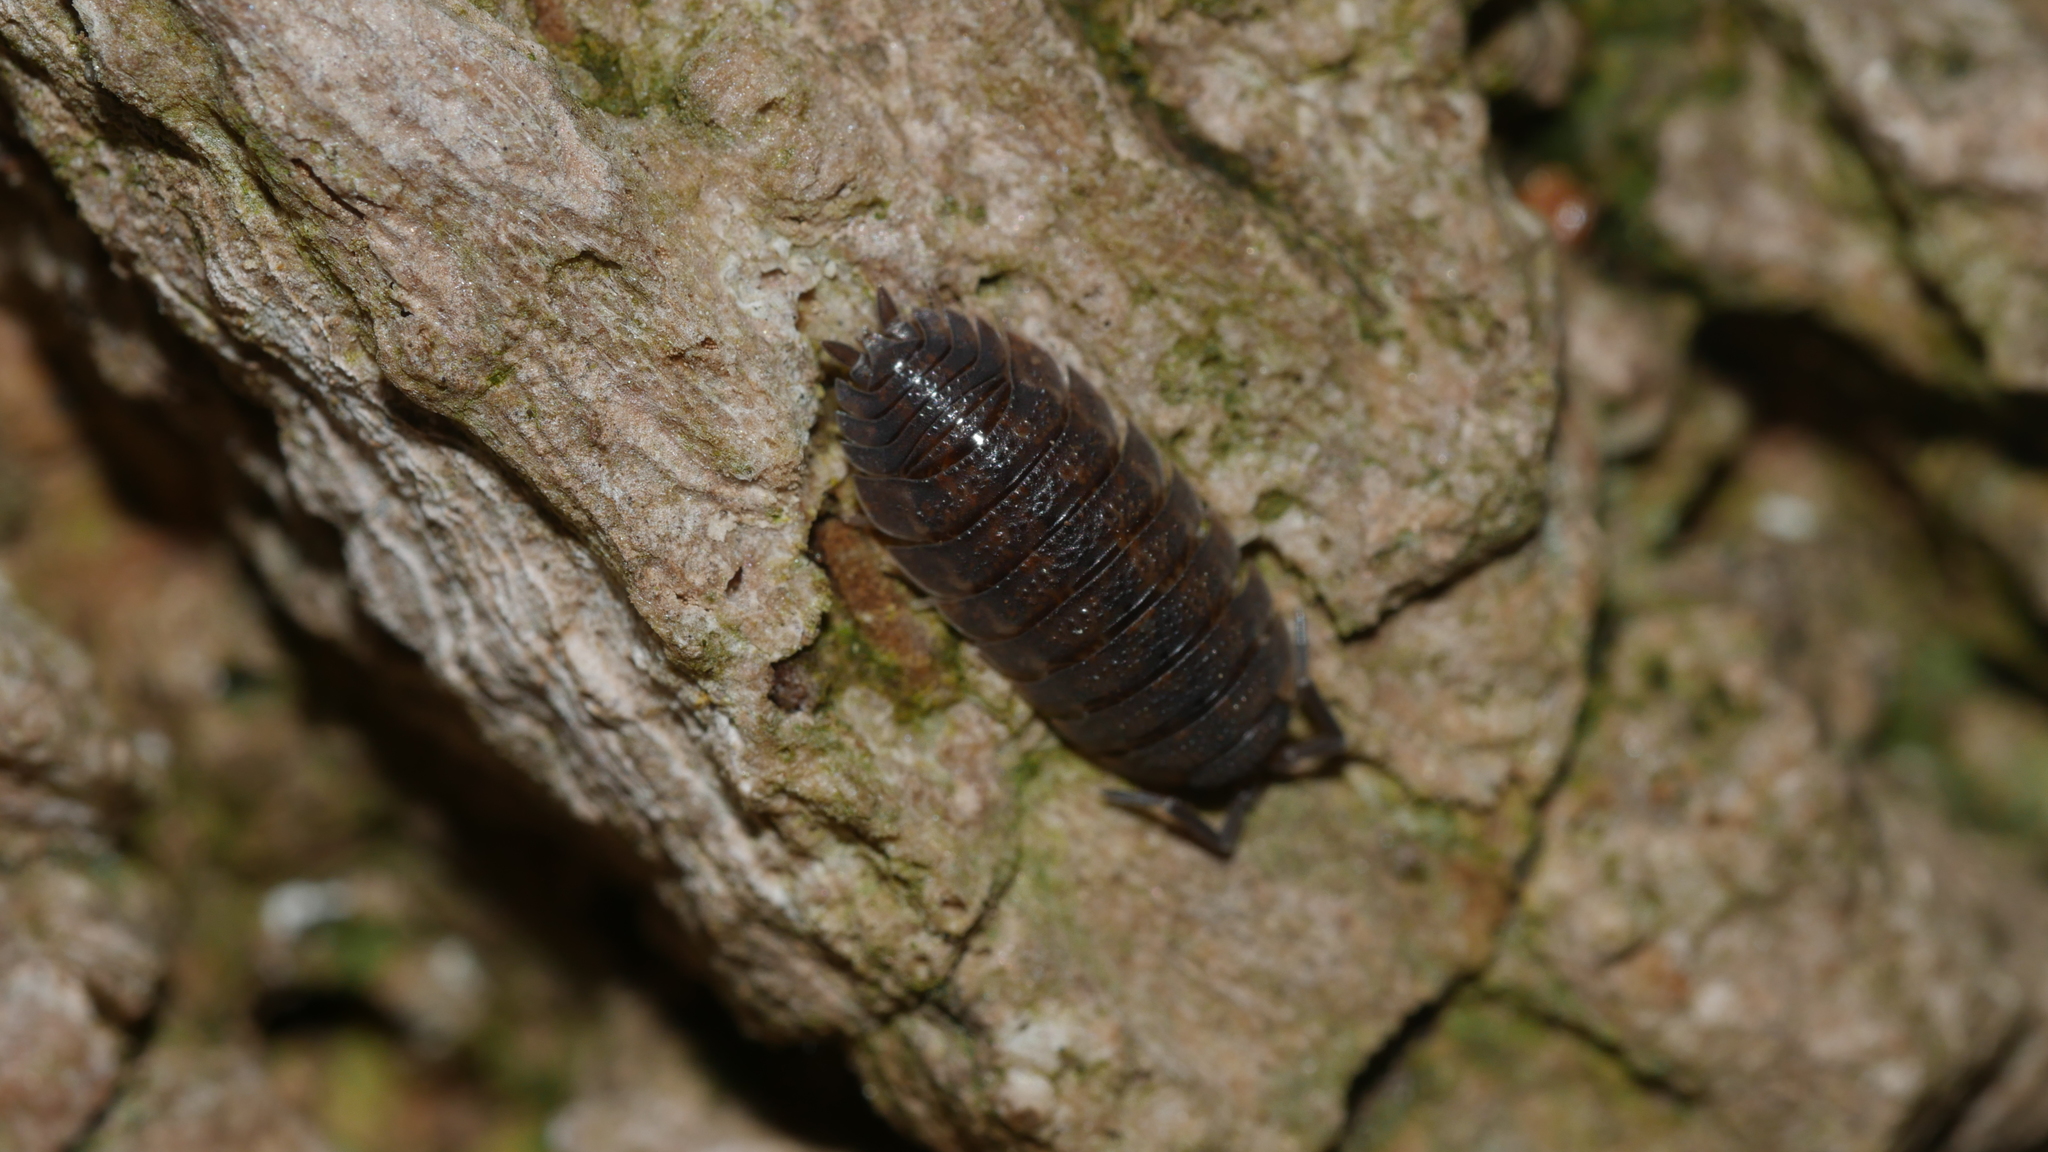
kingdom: Animalia
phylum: Arthropoda
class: Malacostraca
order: Isopoda
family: Porcellionidae
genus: Porcellio
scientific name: Porcellio scaber
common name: Common rough woodlouse
